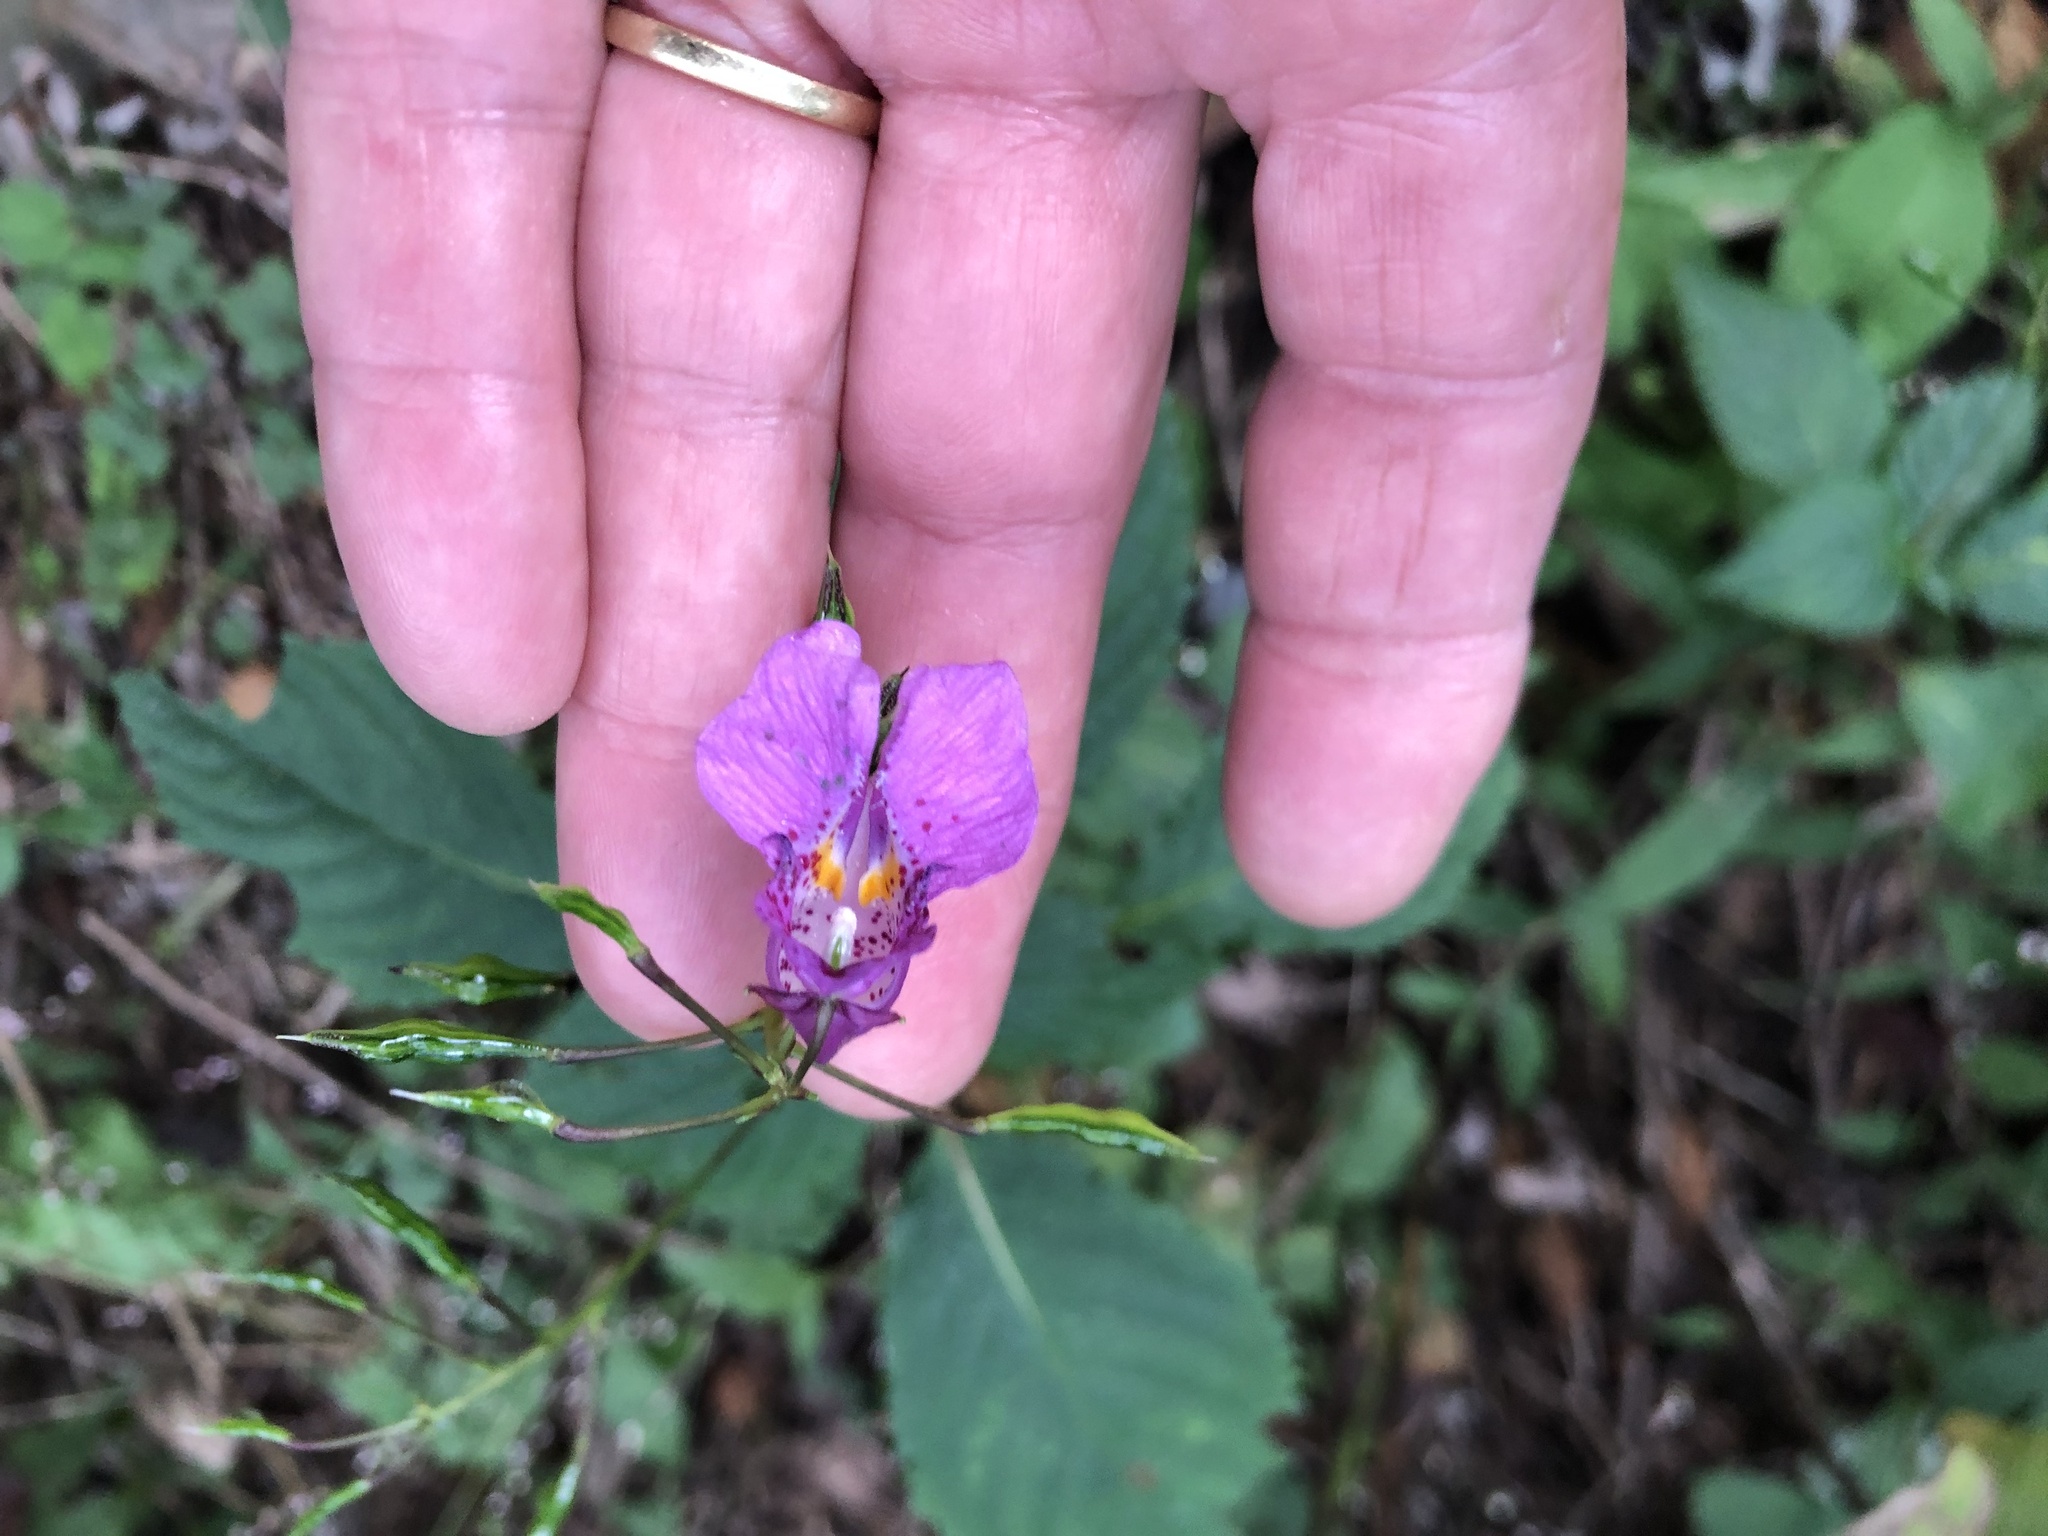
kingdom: Plantae
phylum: Tracheophyta
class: Magnoliopsida
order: Ericales
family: Balsaminaceae
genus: Impatiens
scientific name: Impatiens textorii
